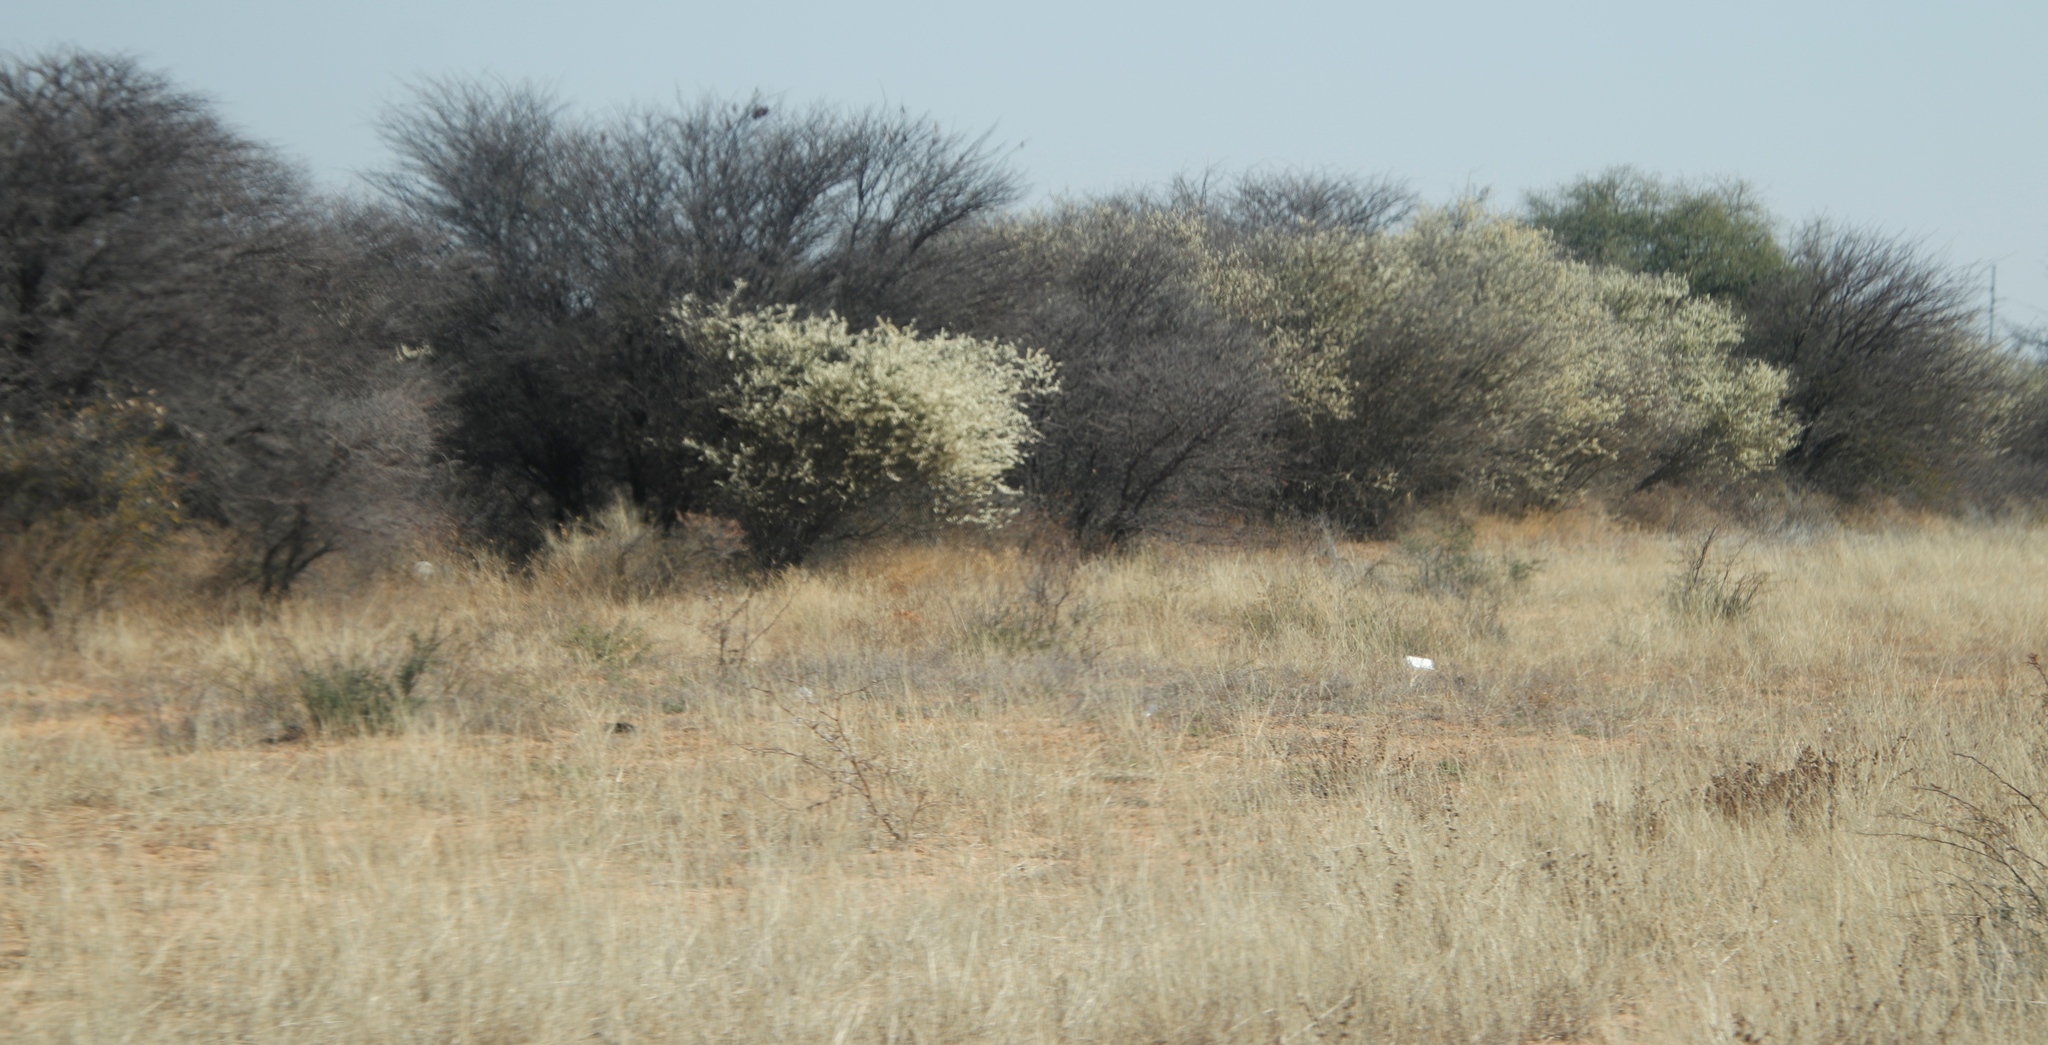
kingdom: Plantae
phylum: Tracheophyta
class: Magnoliopsida
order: Fabales
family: Fabaceae
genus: Senegalia
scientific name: Senegalia mellifera
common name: Hookthorn
